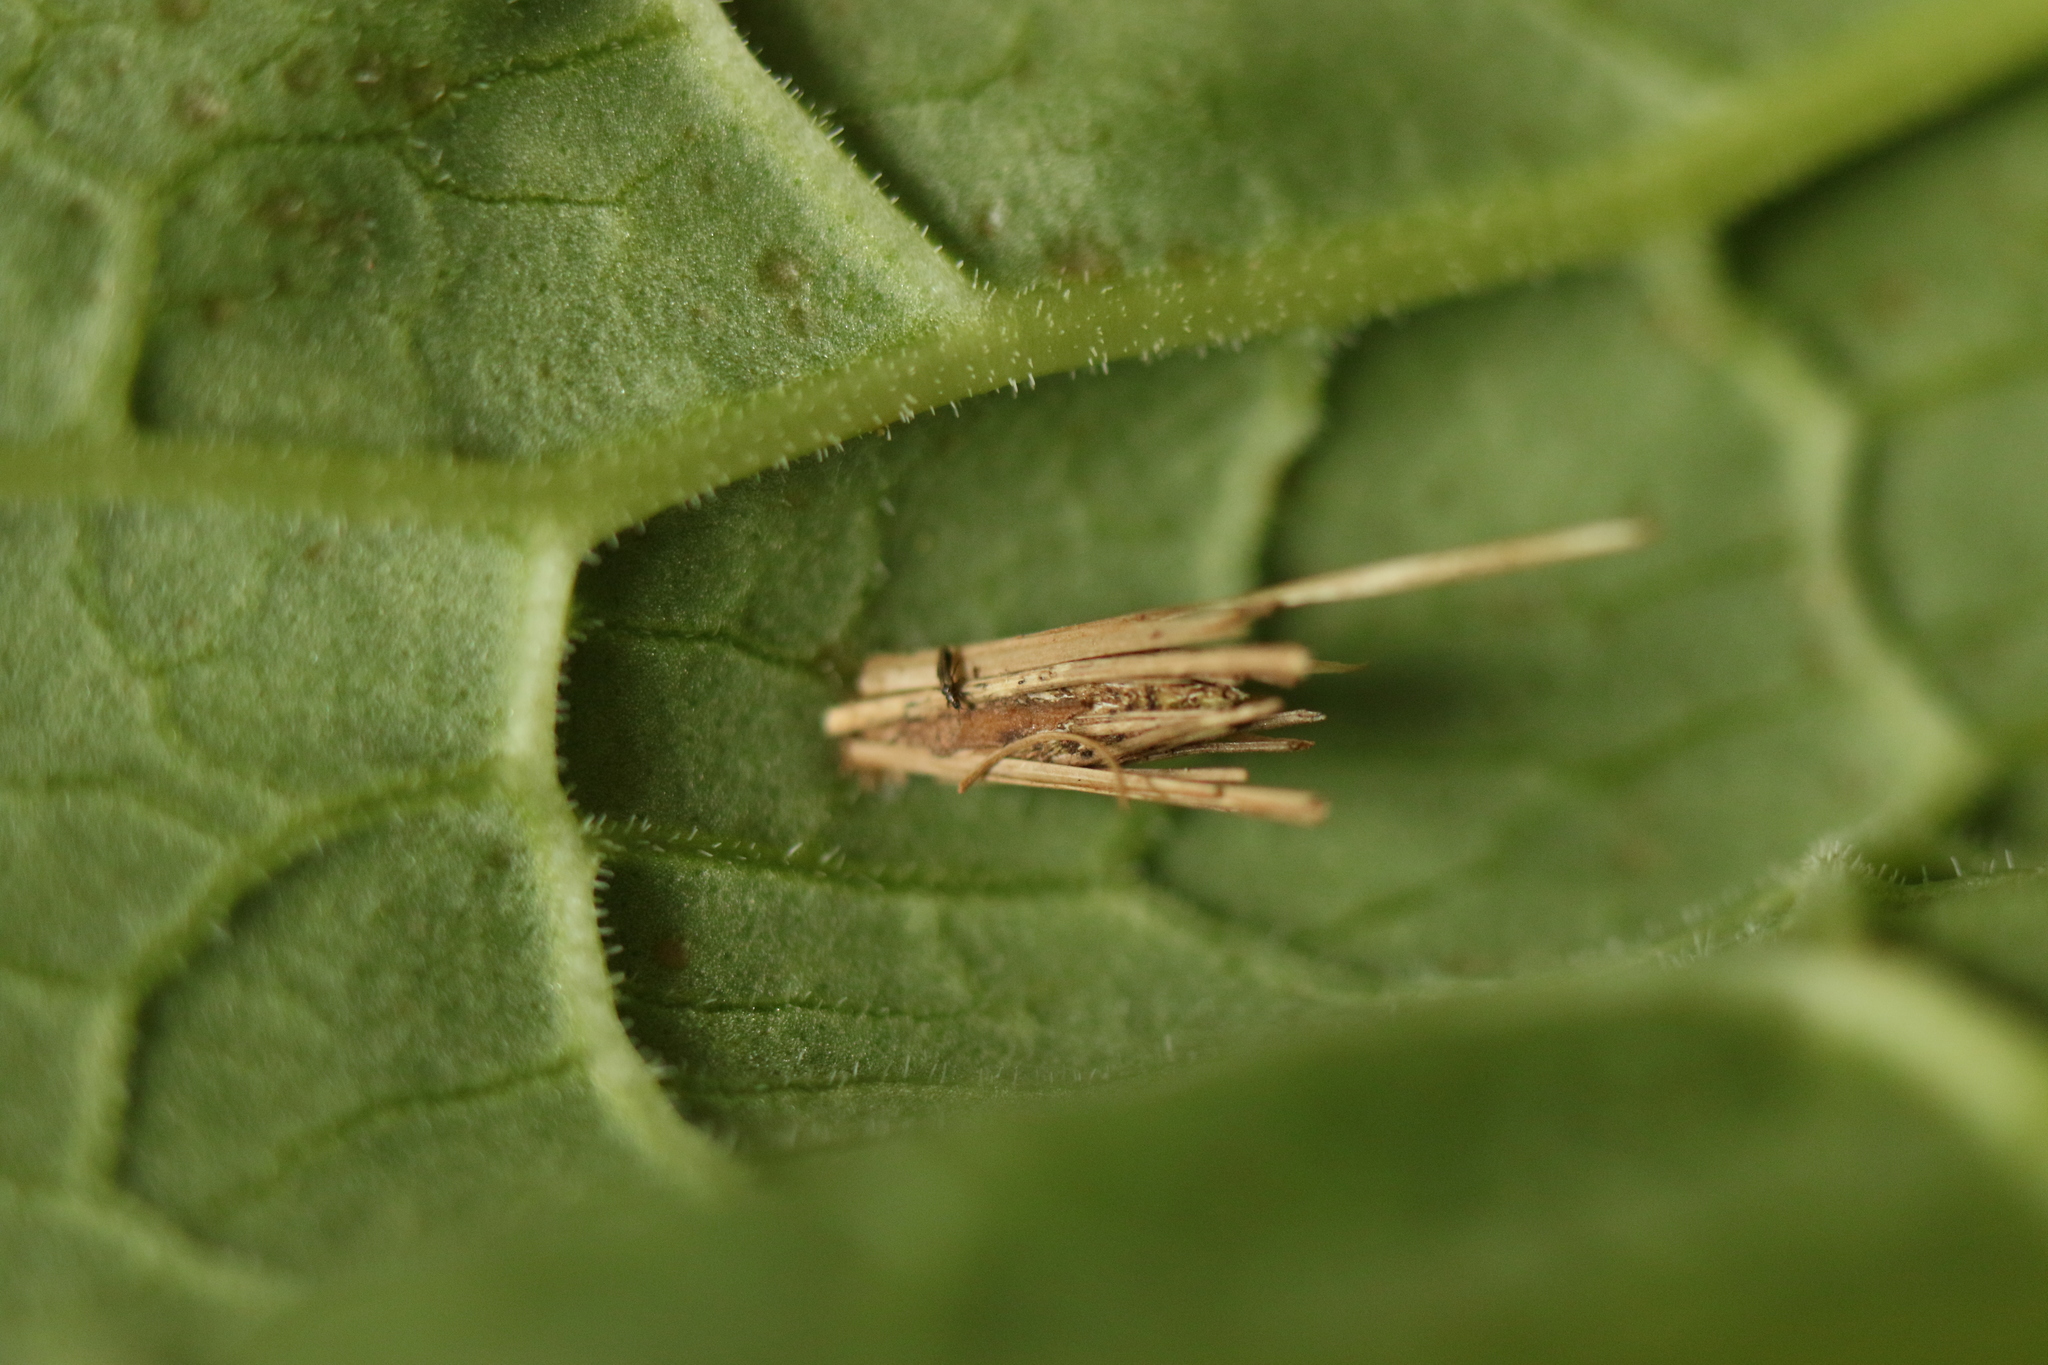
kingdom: Animalia
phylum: Arthropoda
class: Insecta
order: Lepidoptera
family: Psychidae
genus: Psyche
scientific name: Psyche casta
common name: Common sweep
